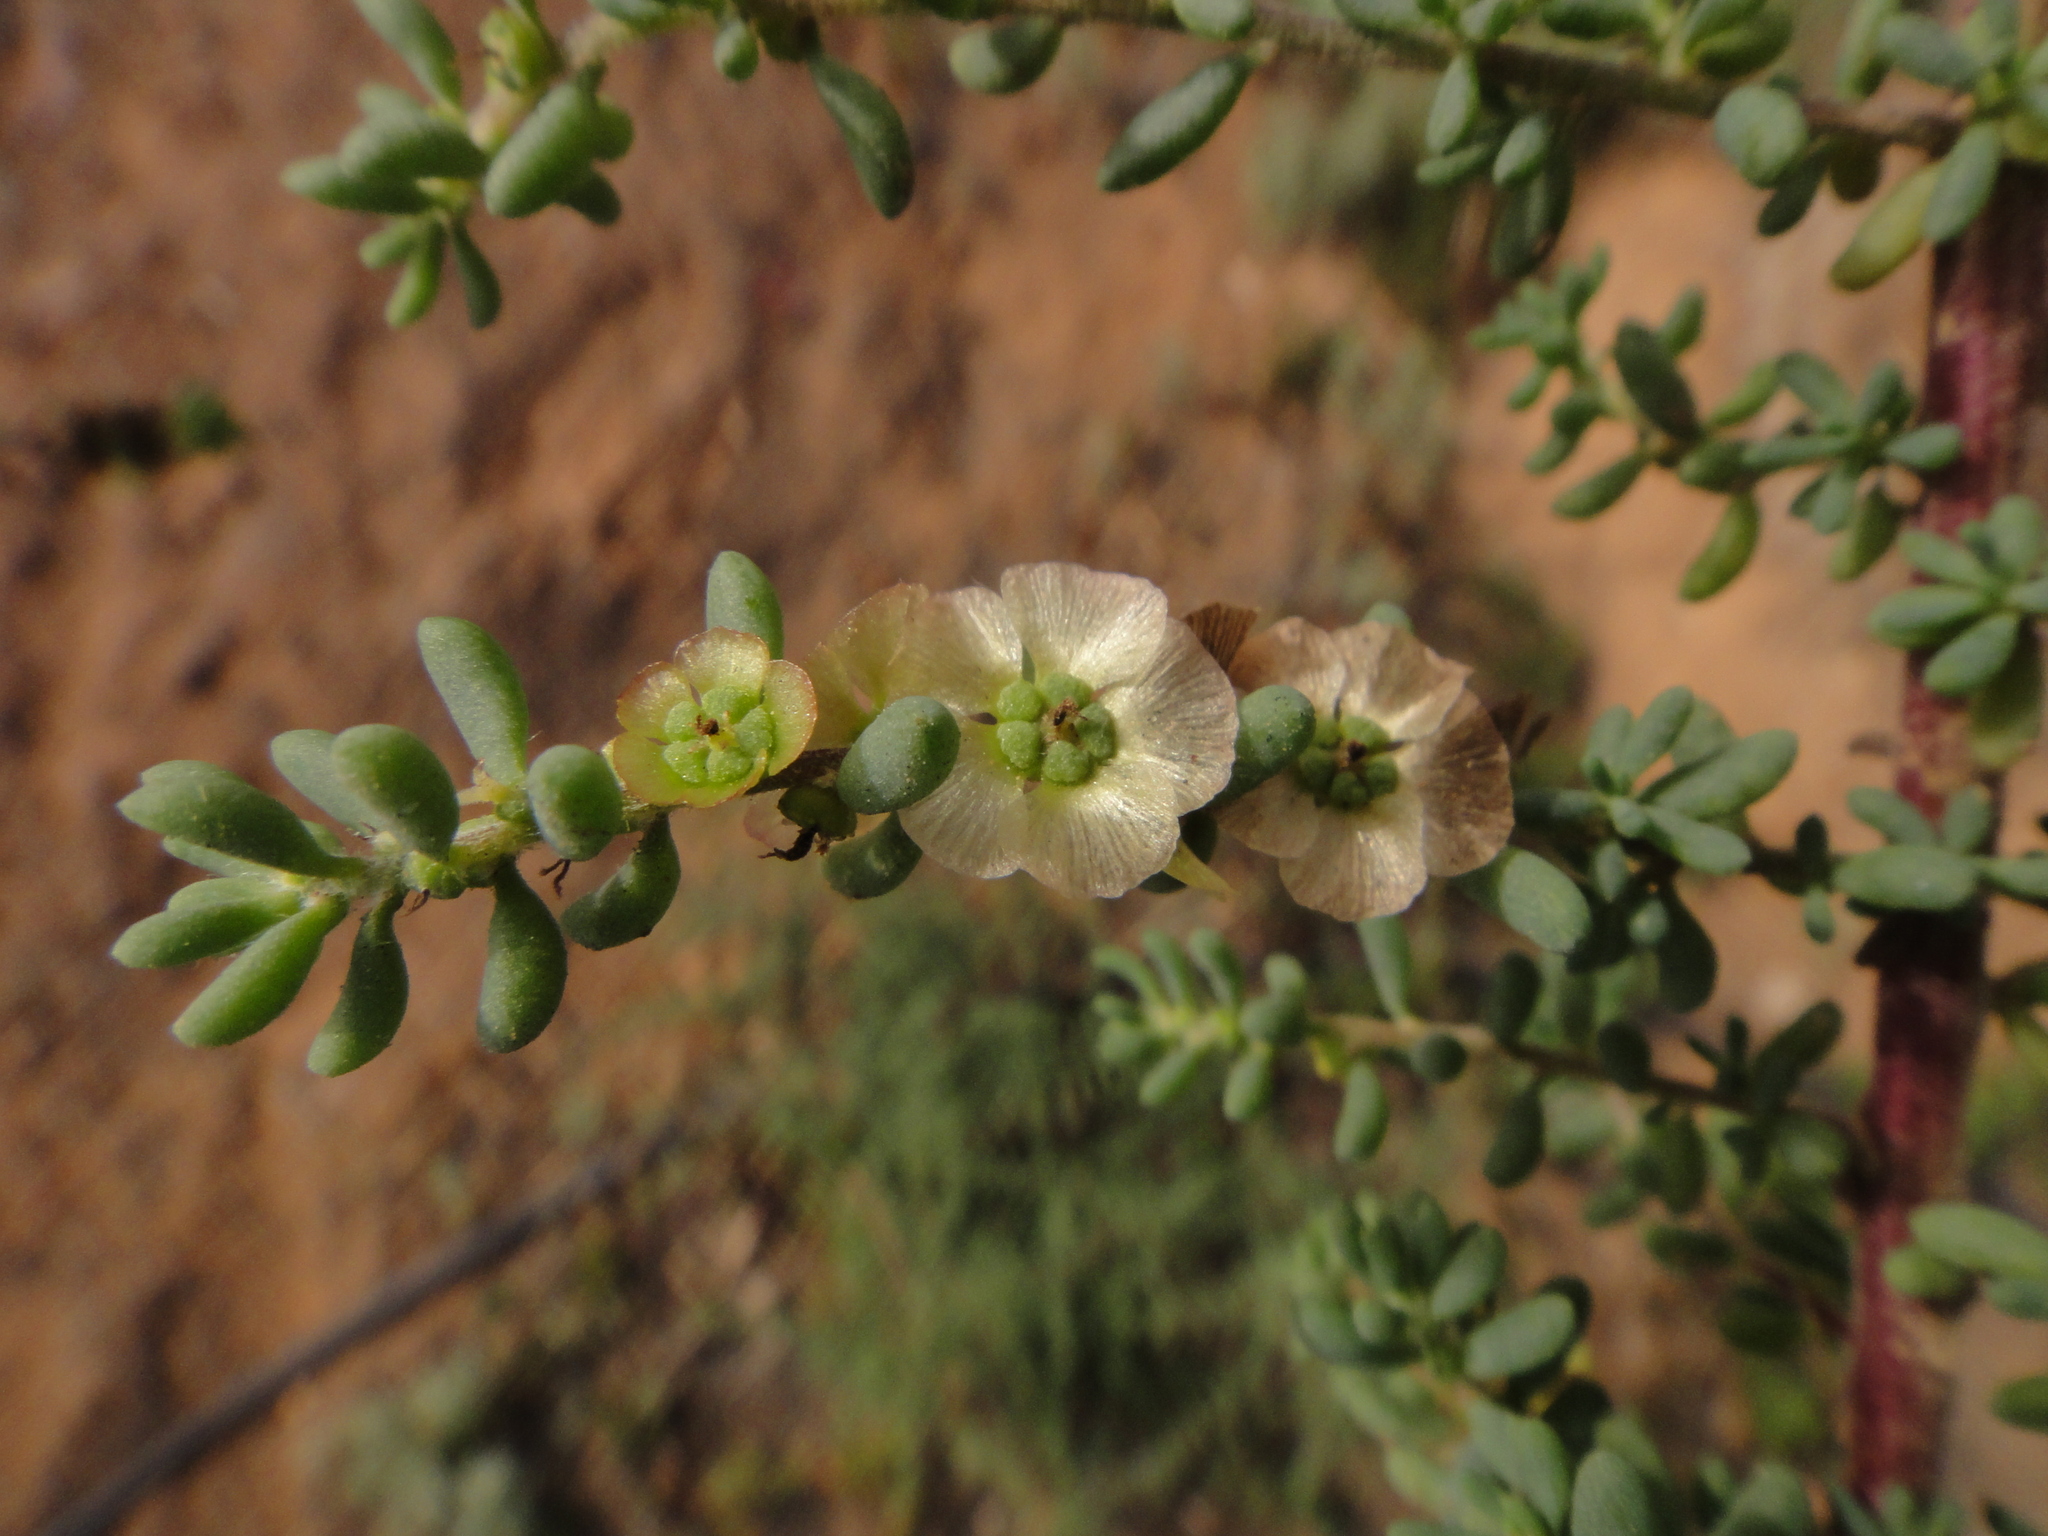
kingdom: Plantae
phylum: Tracheophyta
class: Magnoliopsida
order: Caryophyllales
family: Amaranthaceae
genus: Maireana
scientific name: Maireana brevifolia
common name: Eastern cottonbush
